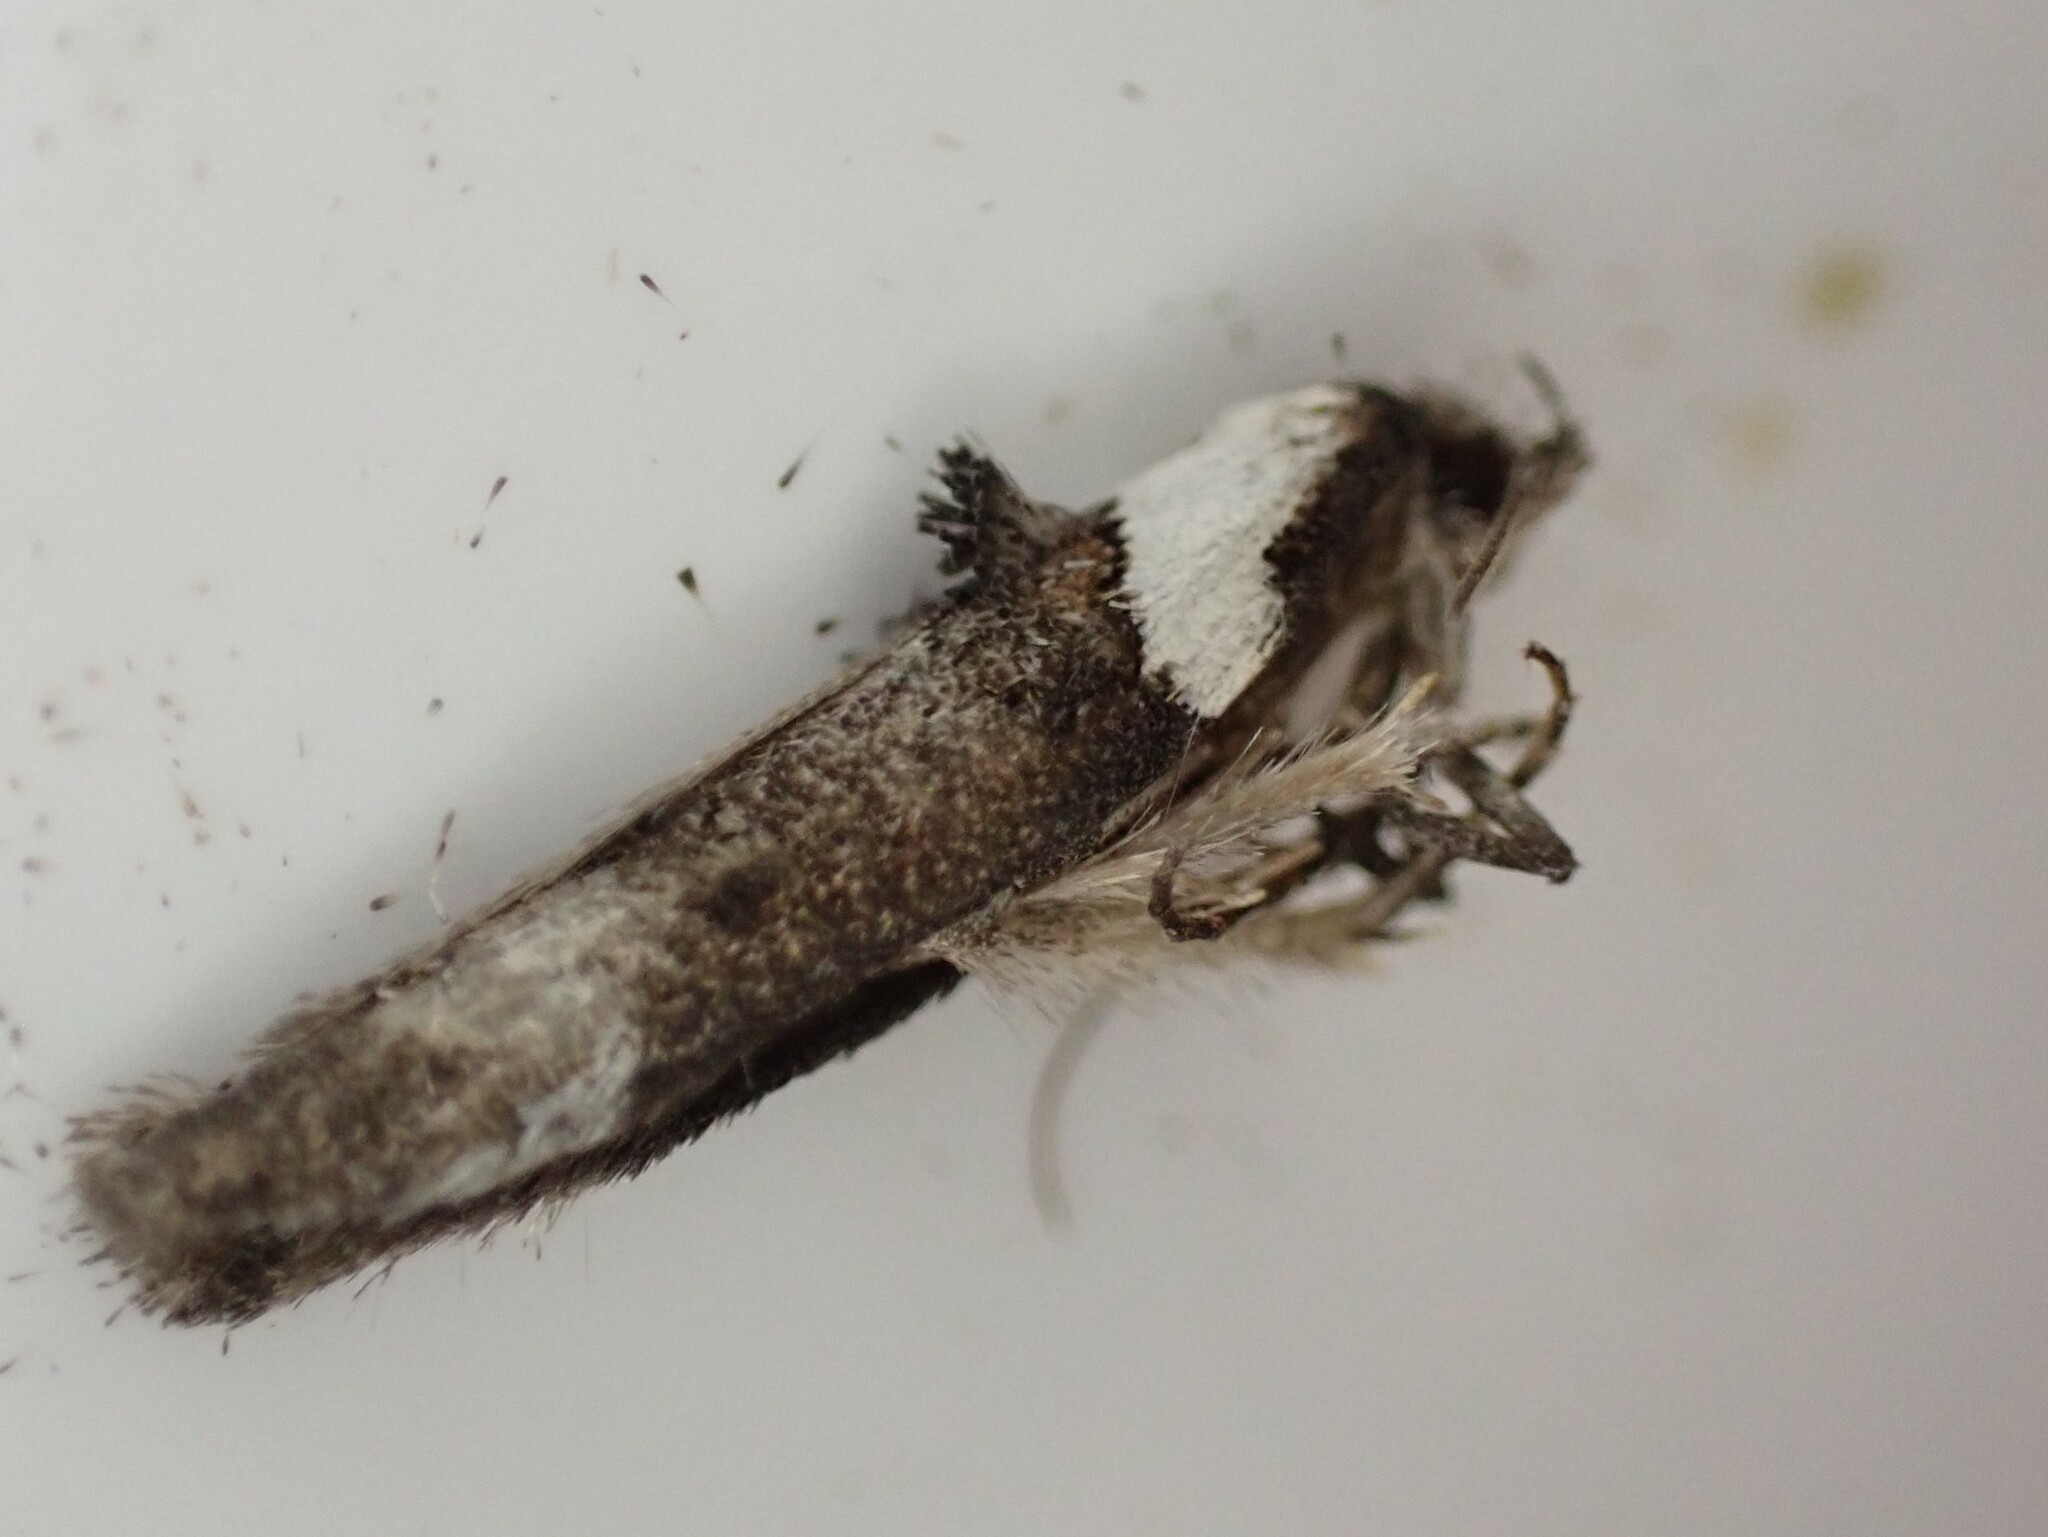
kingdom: Animalia
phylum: Arthropoda
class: Insecta
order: Lepidoptera
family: Oecophoridae
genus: Trachypepla
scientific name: Trachypepla conspicuella
